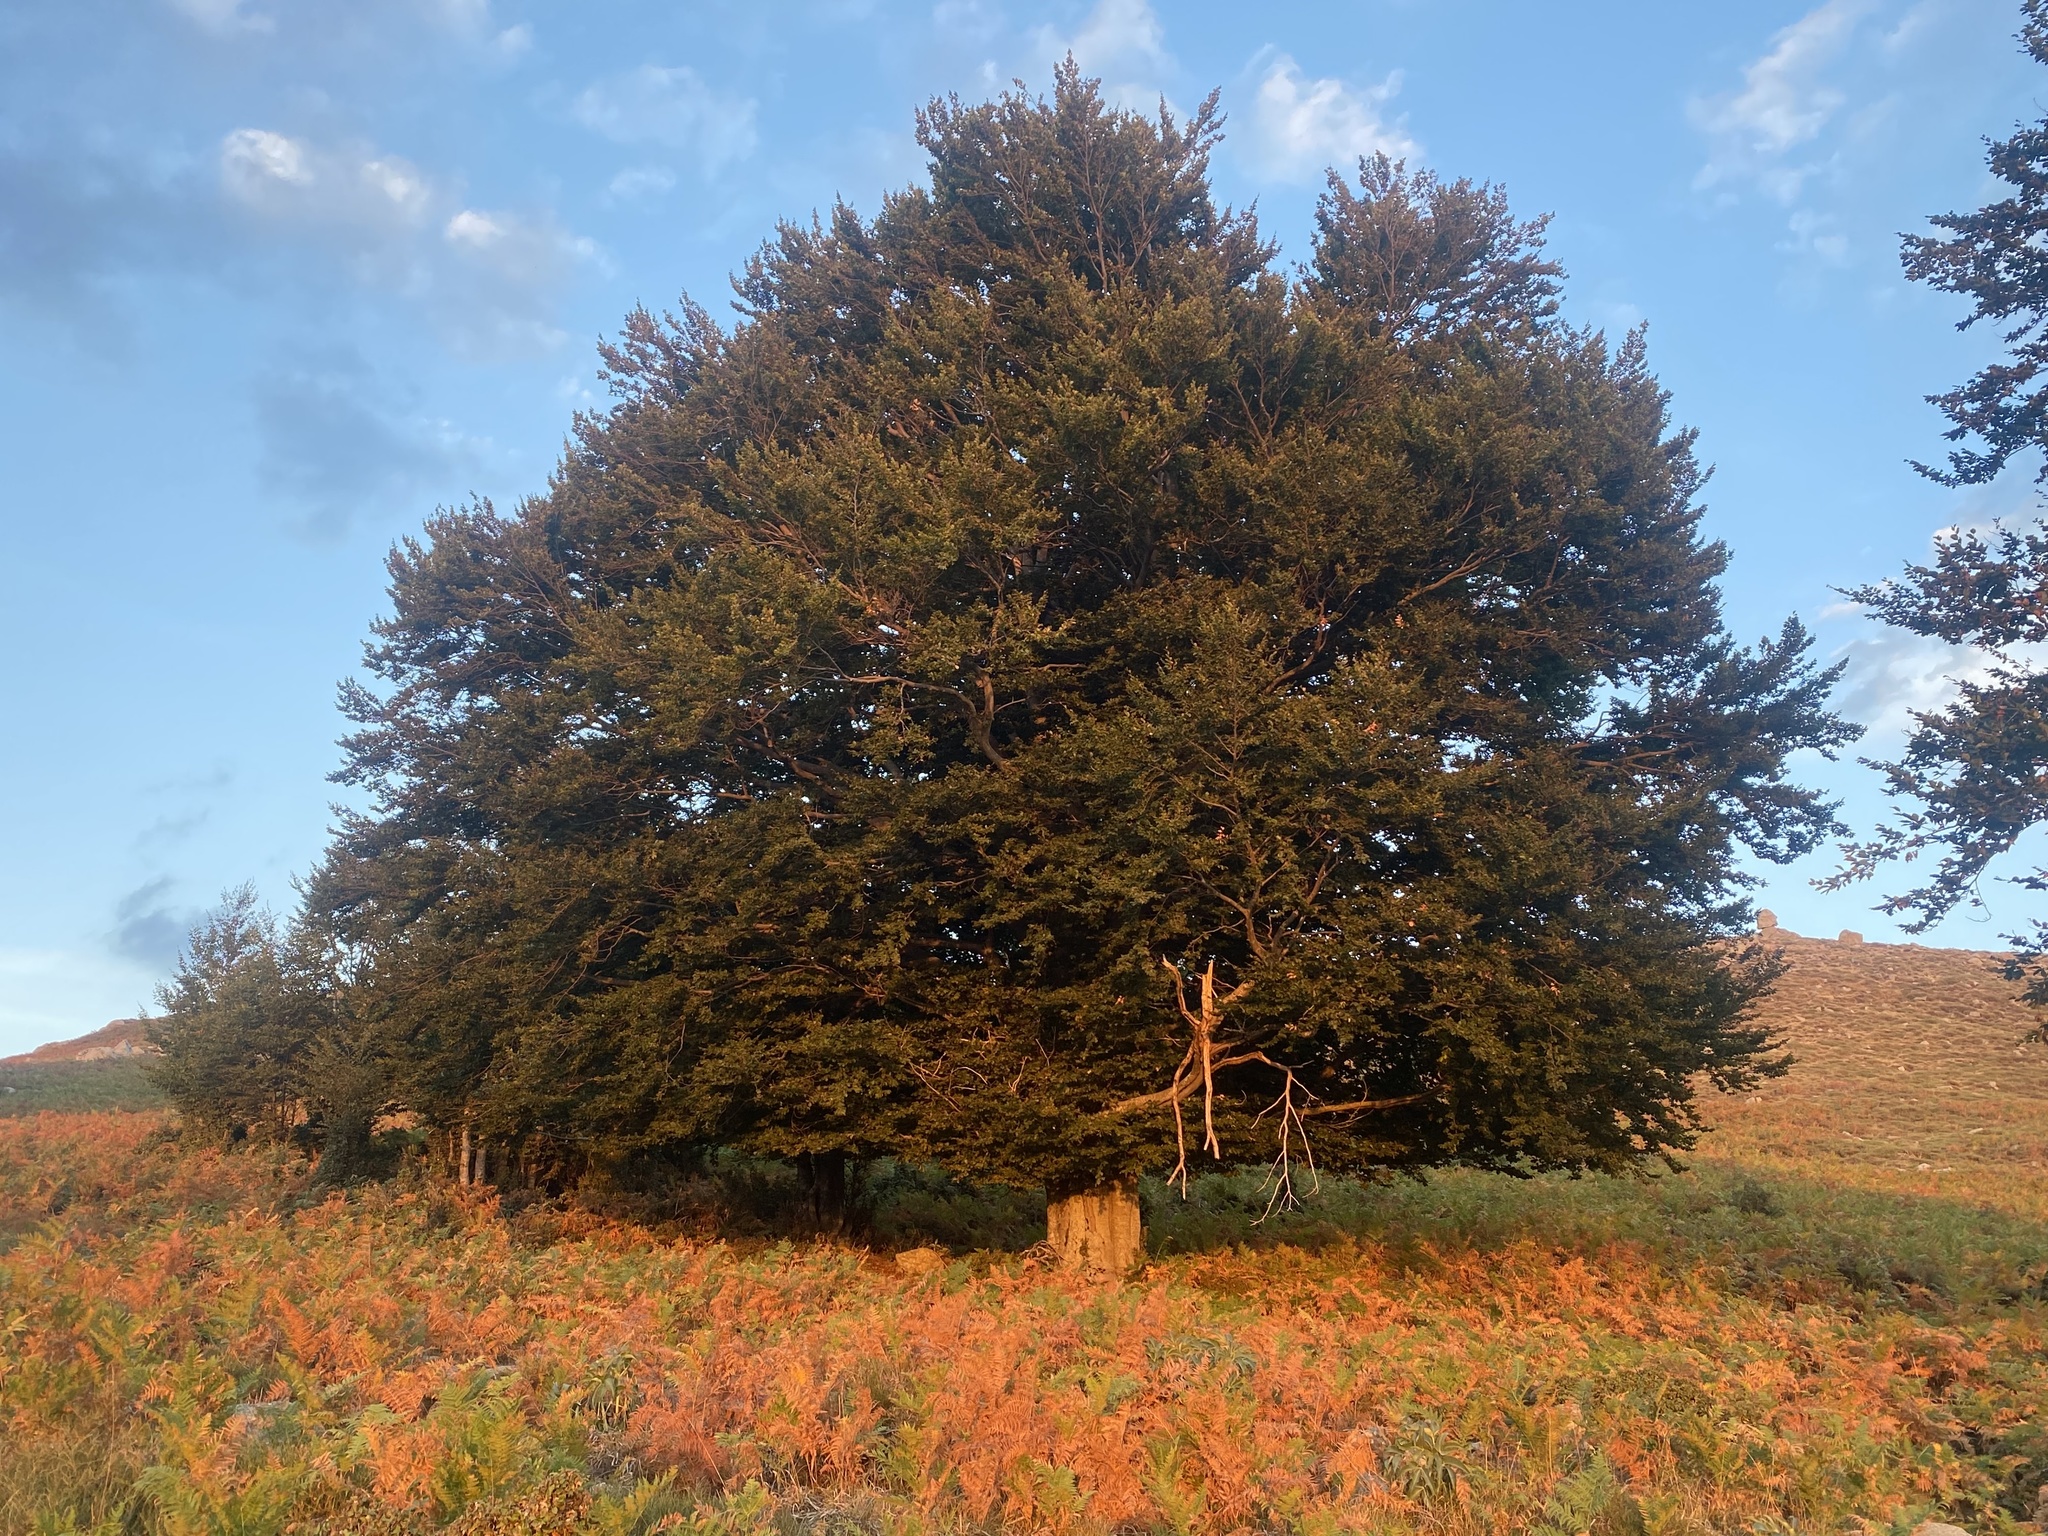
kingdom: Plantae
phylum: Tracheophyta
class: Magnoliopsida
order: Fagales
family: Fagaceae
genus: Fagus
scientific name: Fagus sylvatica
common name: Beech
